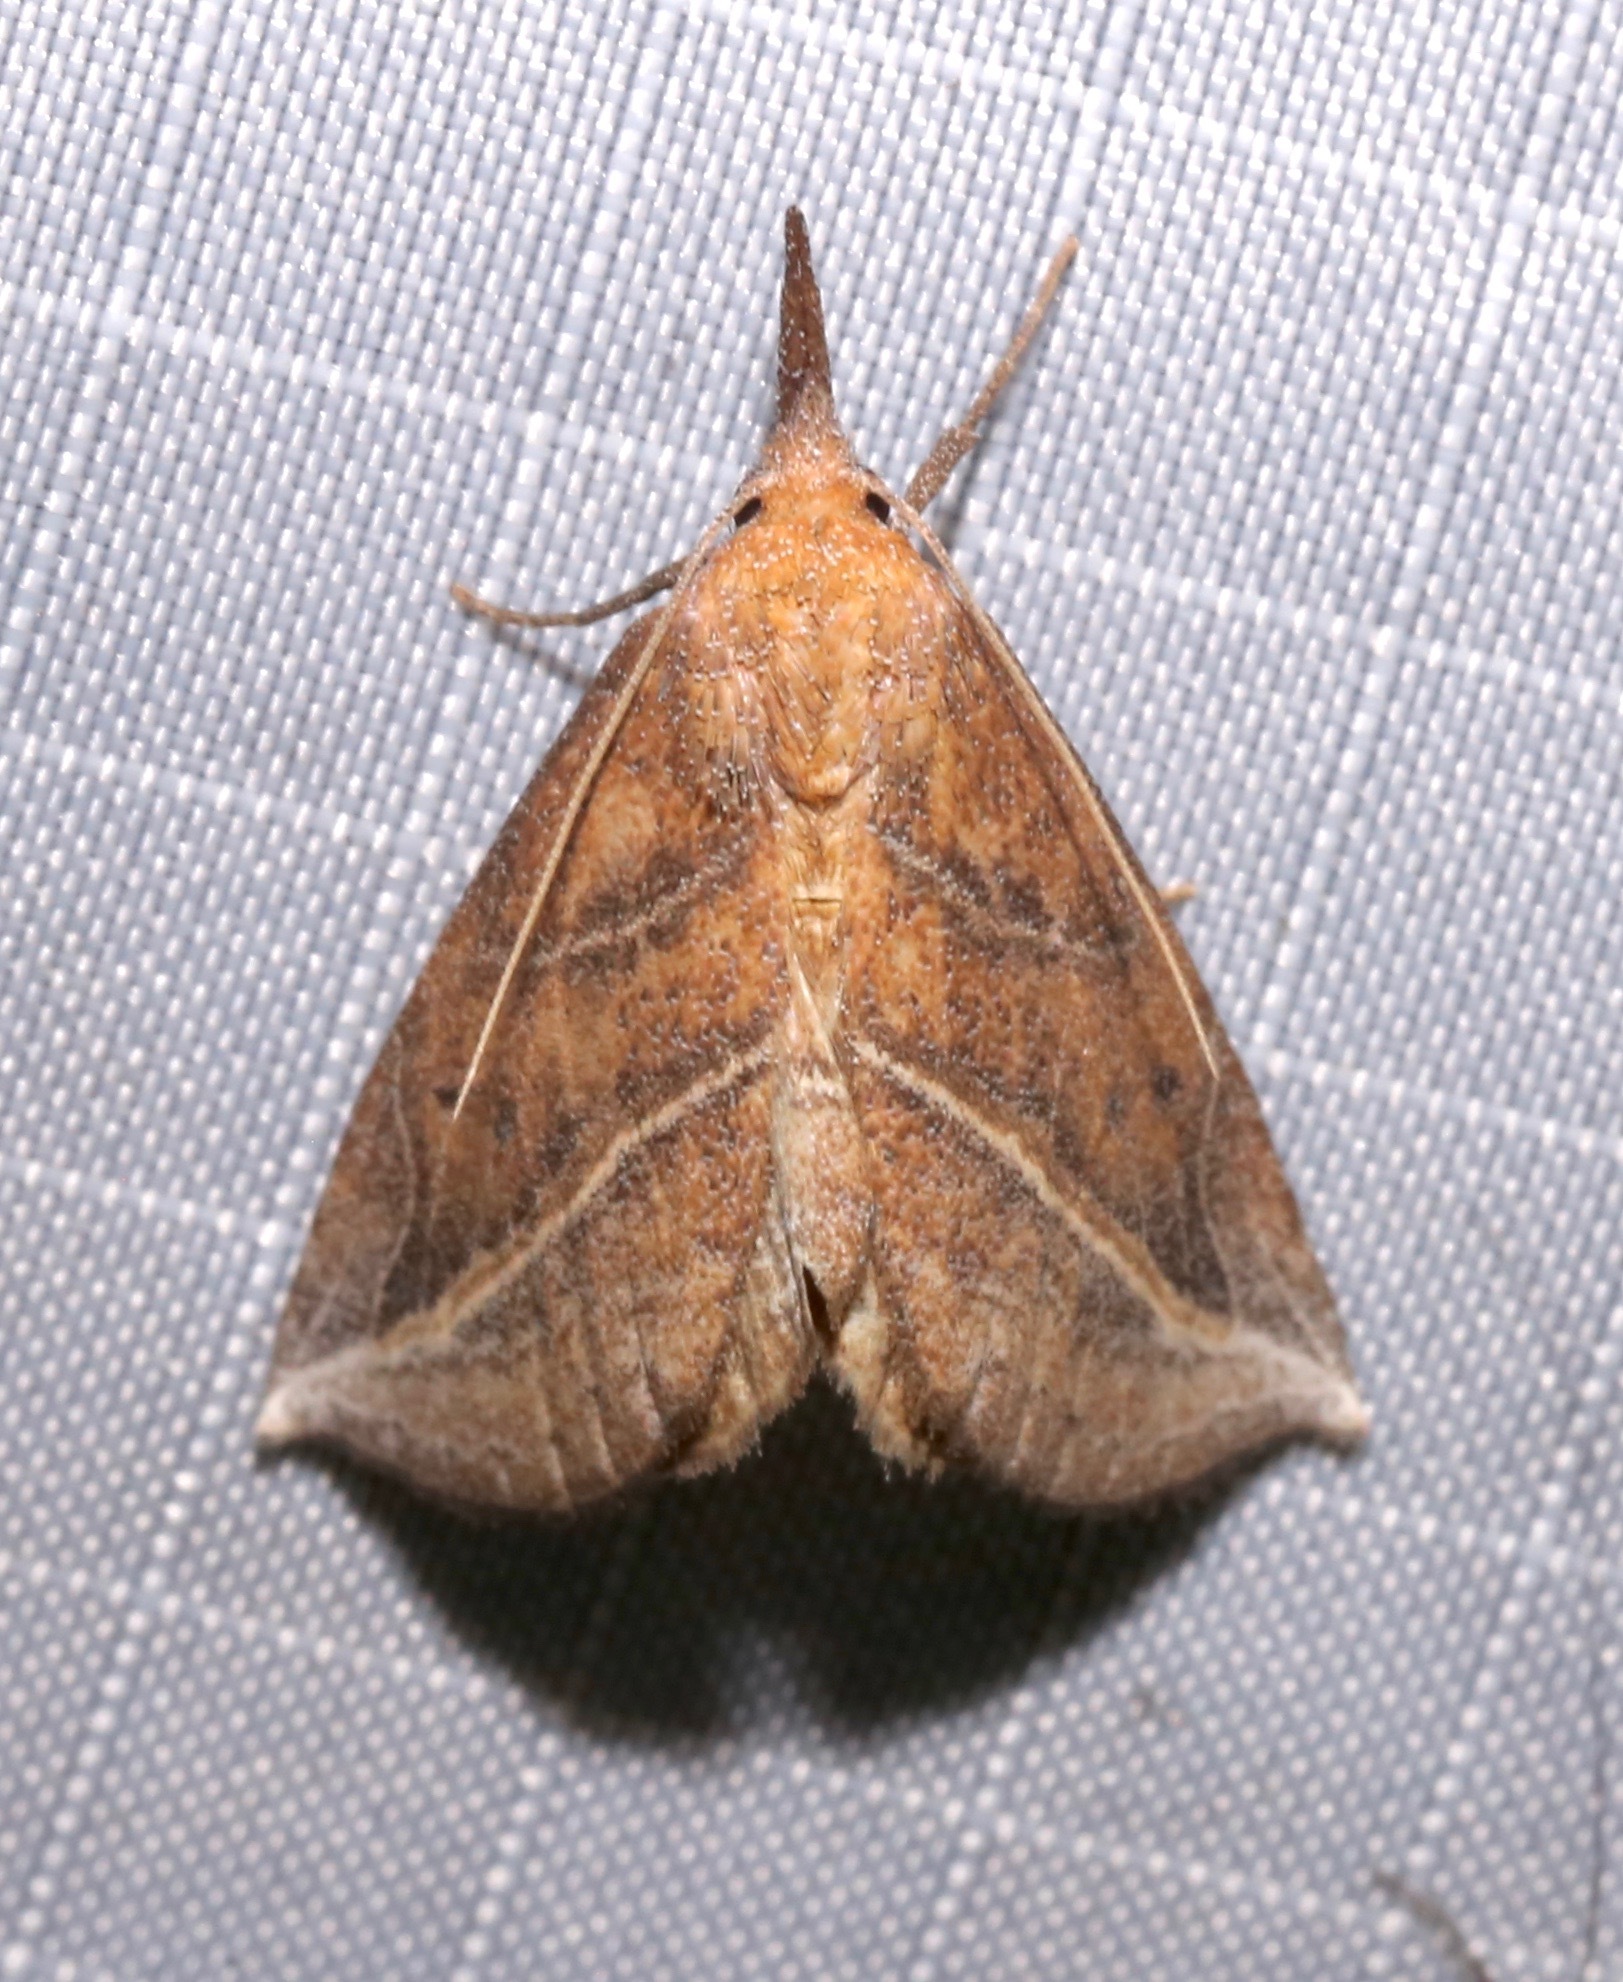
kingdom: Animalia
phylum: Arthropoda
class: Insecta
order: Lepidoptera
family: Erebidae
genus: Phyprosopus
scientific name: Phyprosopus callitrichoides
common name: Curved-lined owlet
